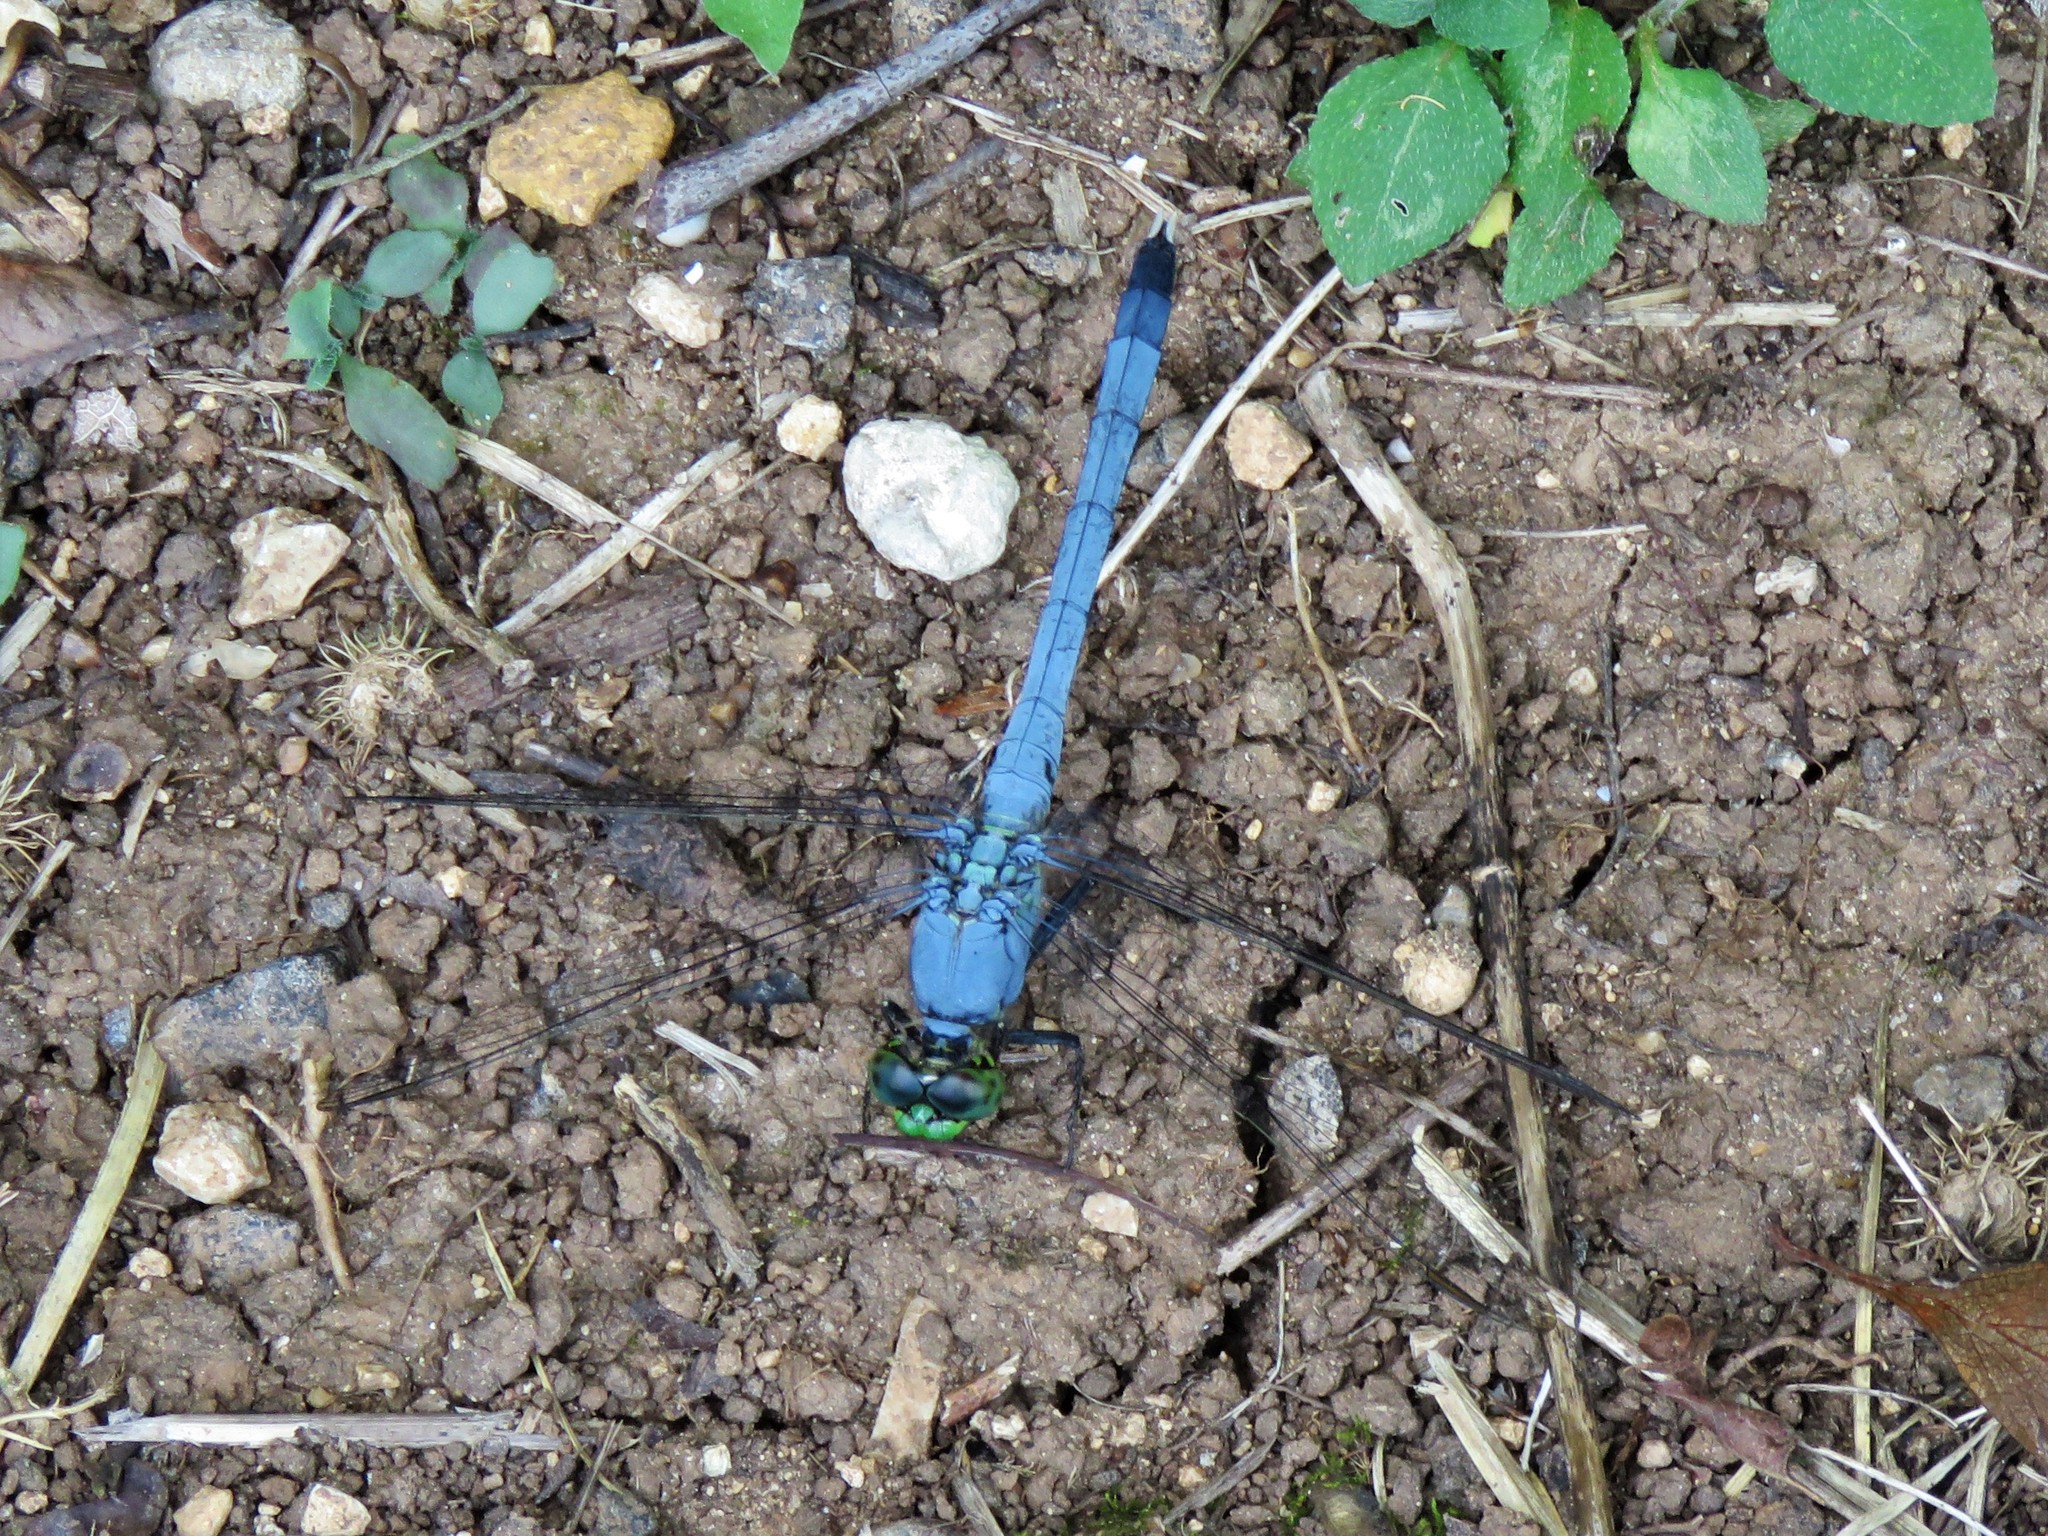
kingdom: Animalia
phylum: Arthropoda
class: Insecta
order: Odonata
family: Libellulidae
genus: Erythemis
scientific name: Erythemis simplicicollis
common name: Eastern pondhawk
